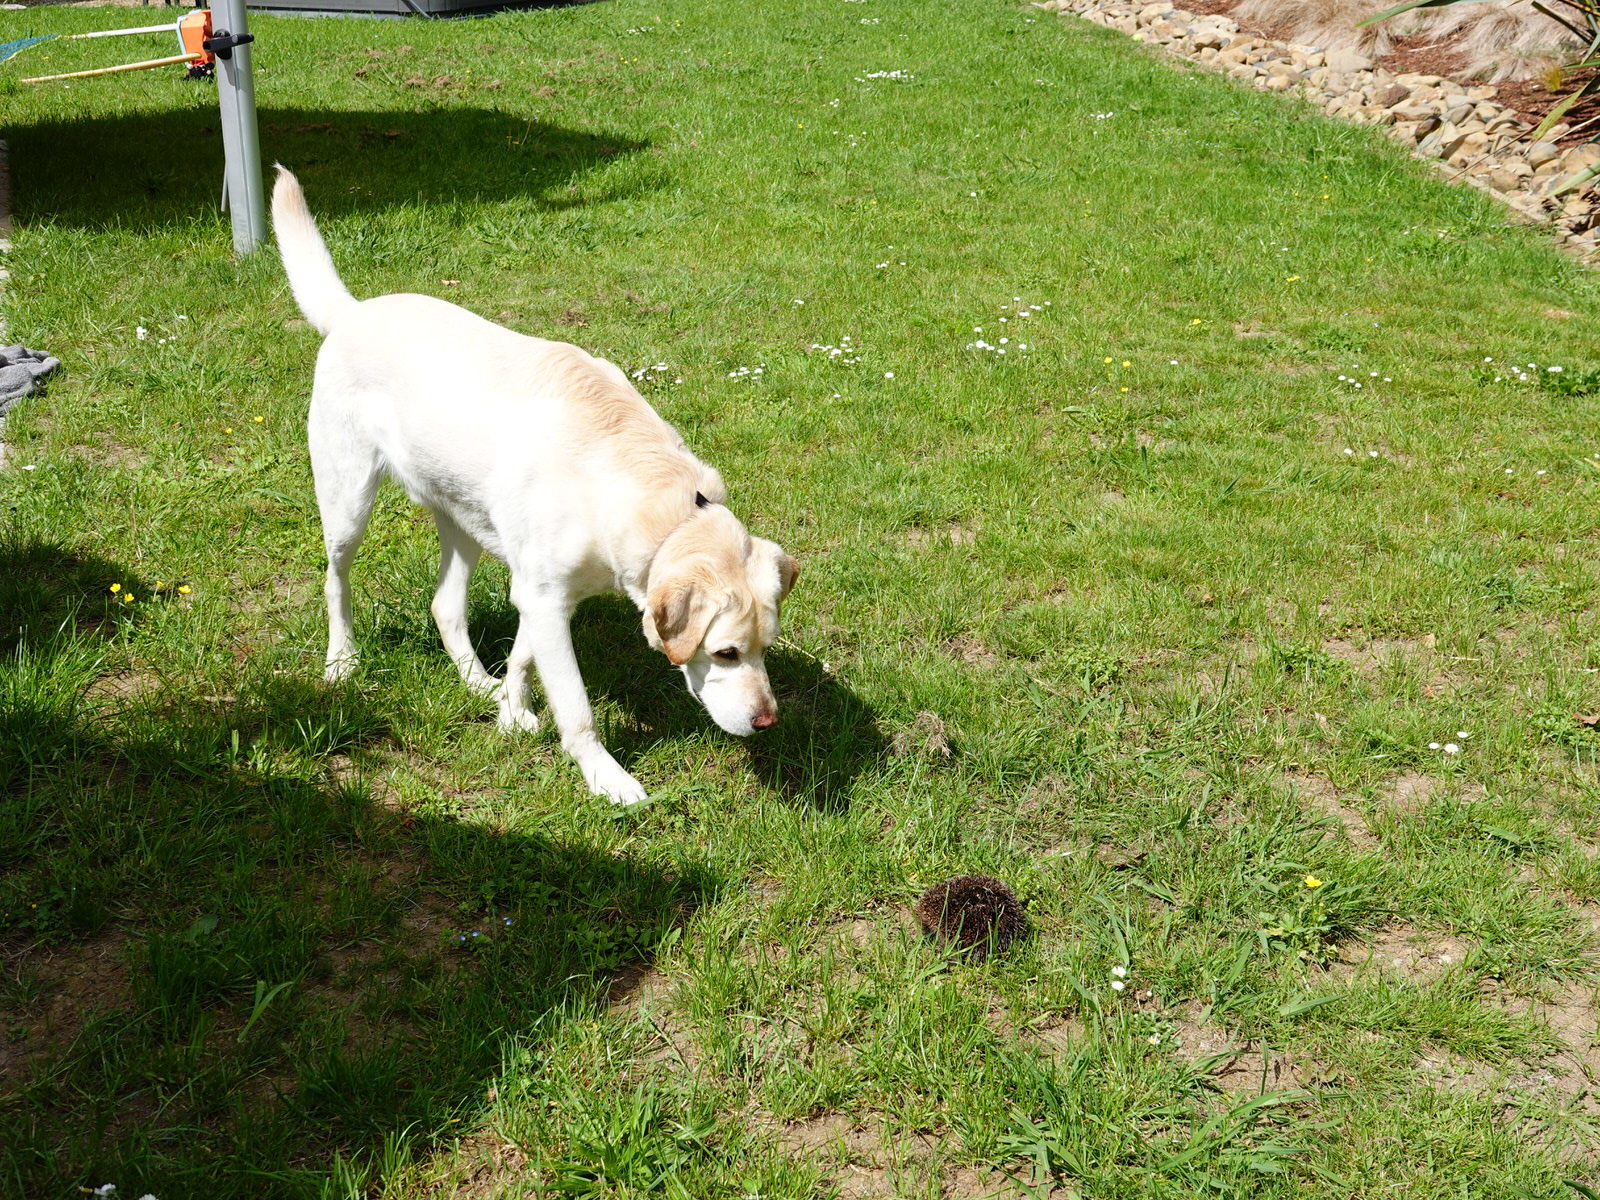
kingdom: Animalia
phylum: Chordata
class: Mammalia
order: Erinaceomorpha
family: Erinaceidae
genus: Erinaceus
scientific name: Erinaceus europaeus
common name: West european hedgehog
